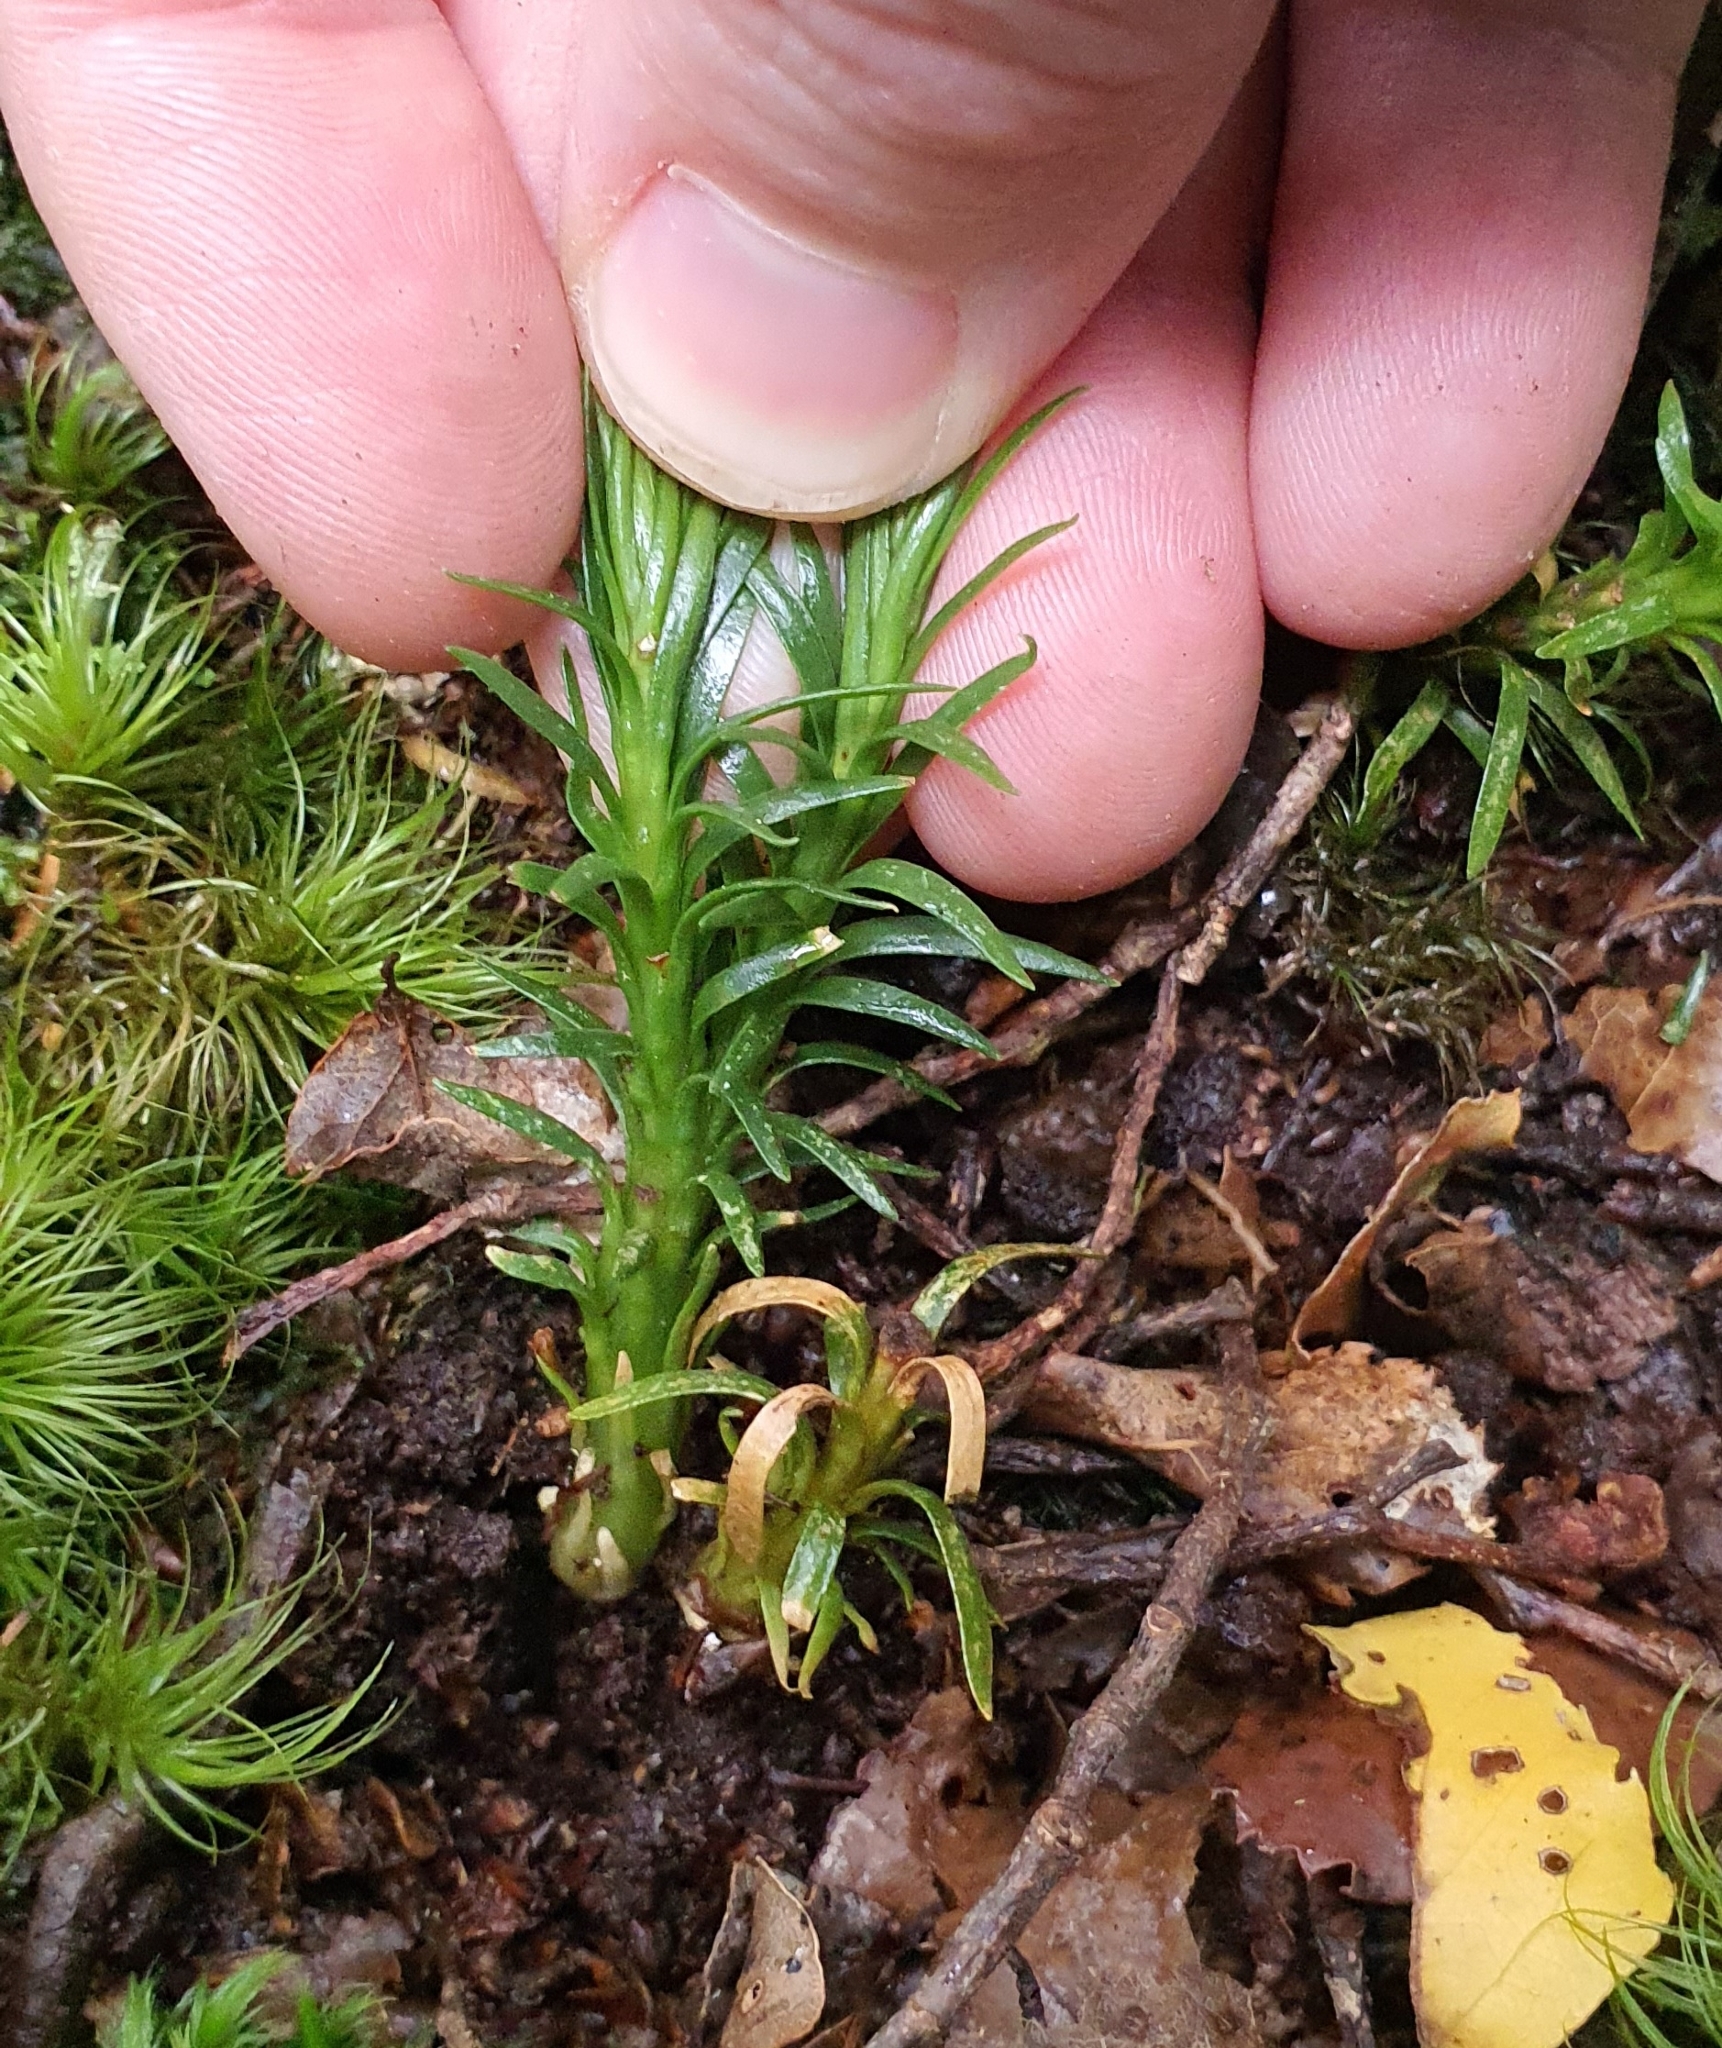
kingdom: Plantae
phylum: Tracheophyta
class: Lycopodiopsida
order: Lycopodiales
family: Lycopodiaceae
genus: Phlegmariurus
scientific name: Phlegmariurus varius
